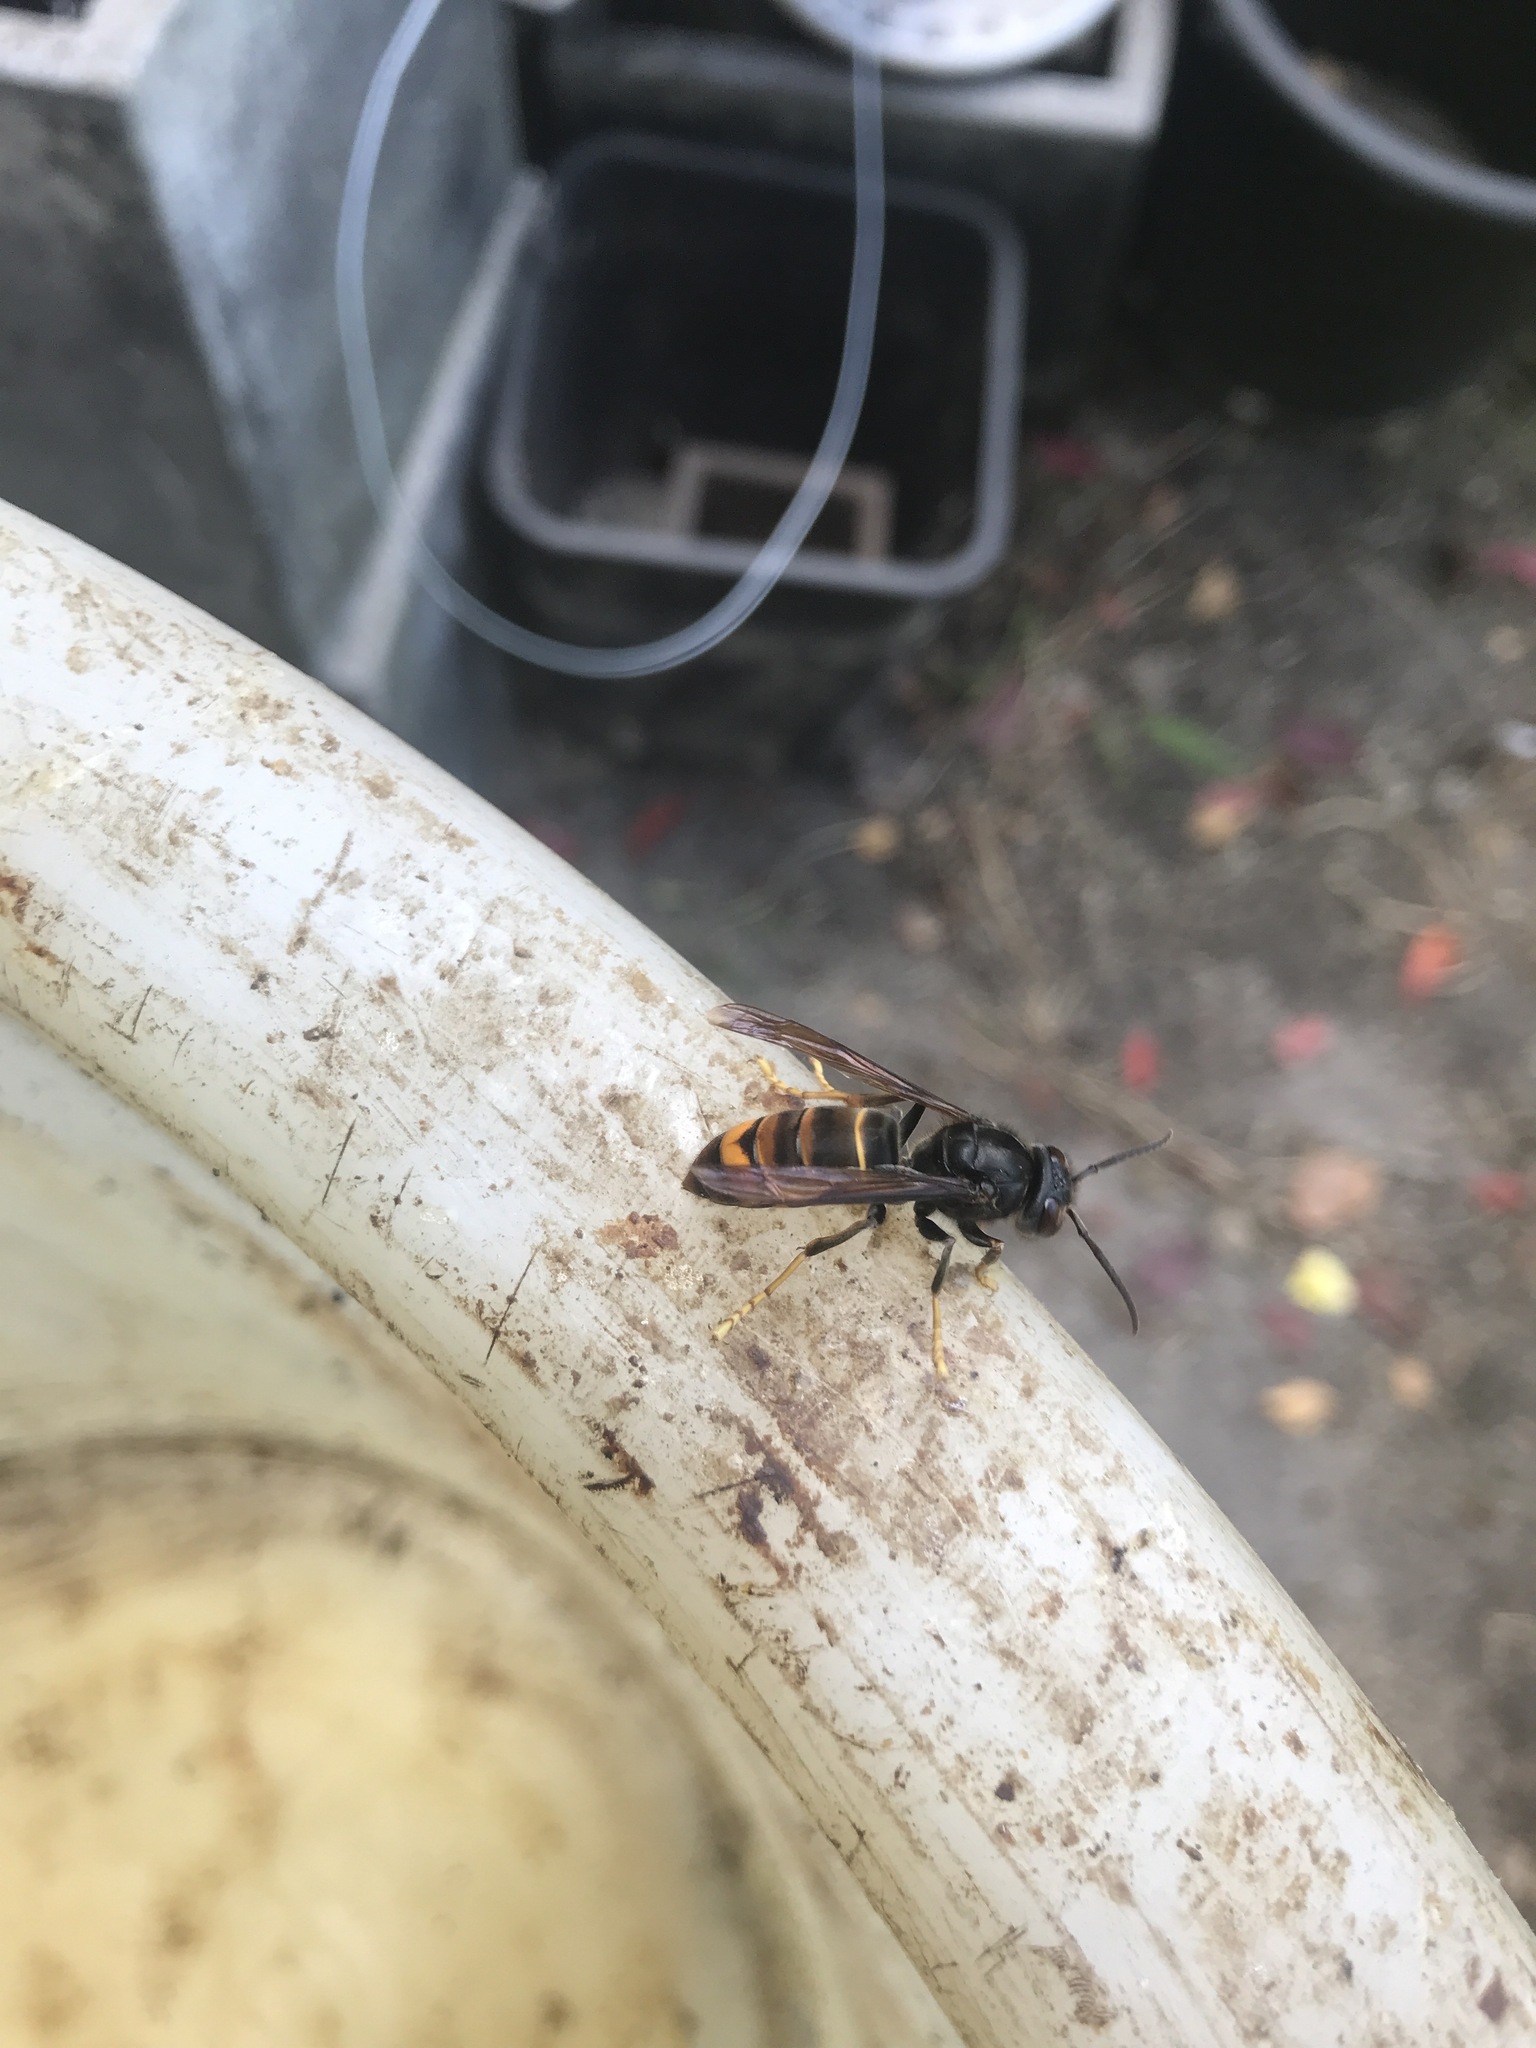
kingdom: Animalia
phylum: Arthropoda
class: Insecta
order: Hymenoptera
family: Vespidae
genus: Vespa
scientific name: Vespa velutina
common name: Asian hornet
